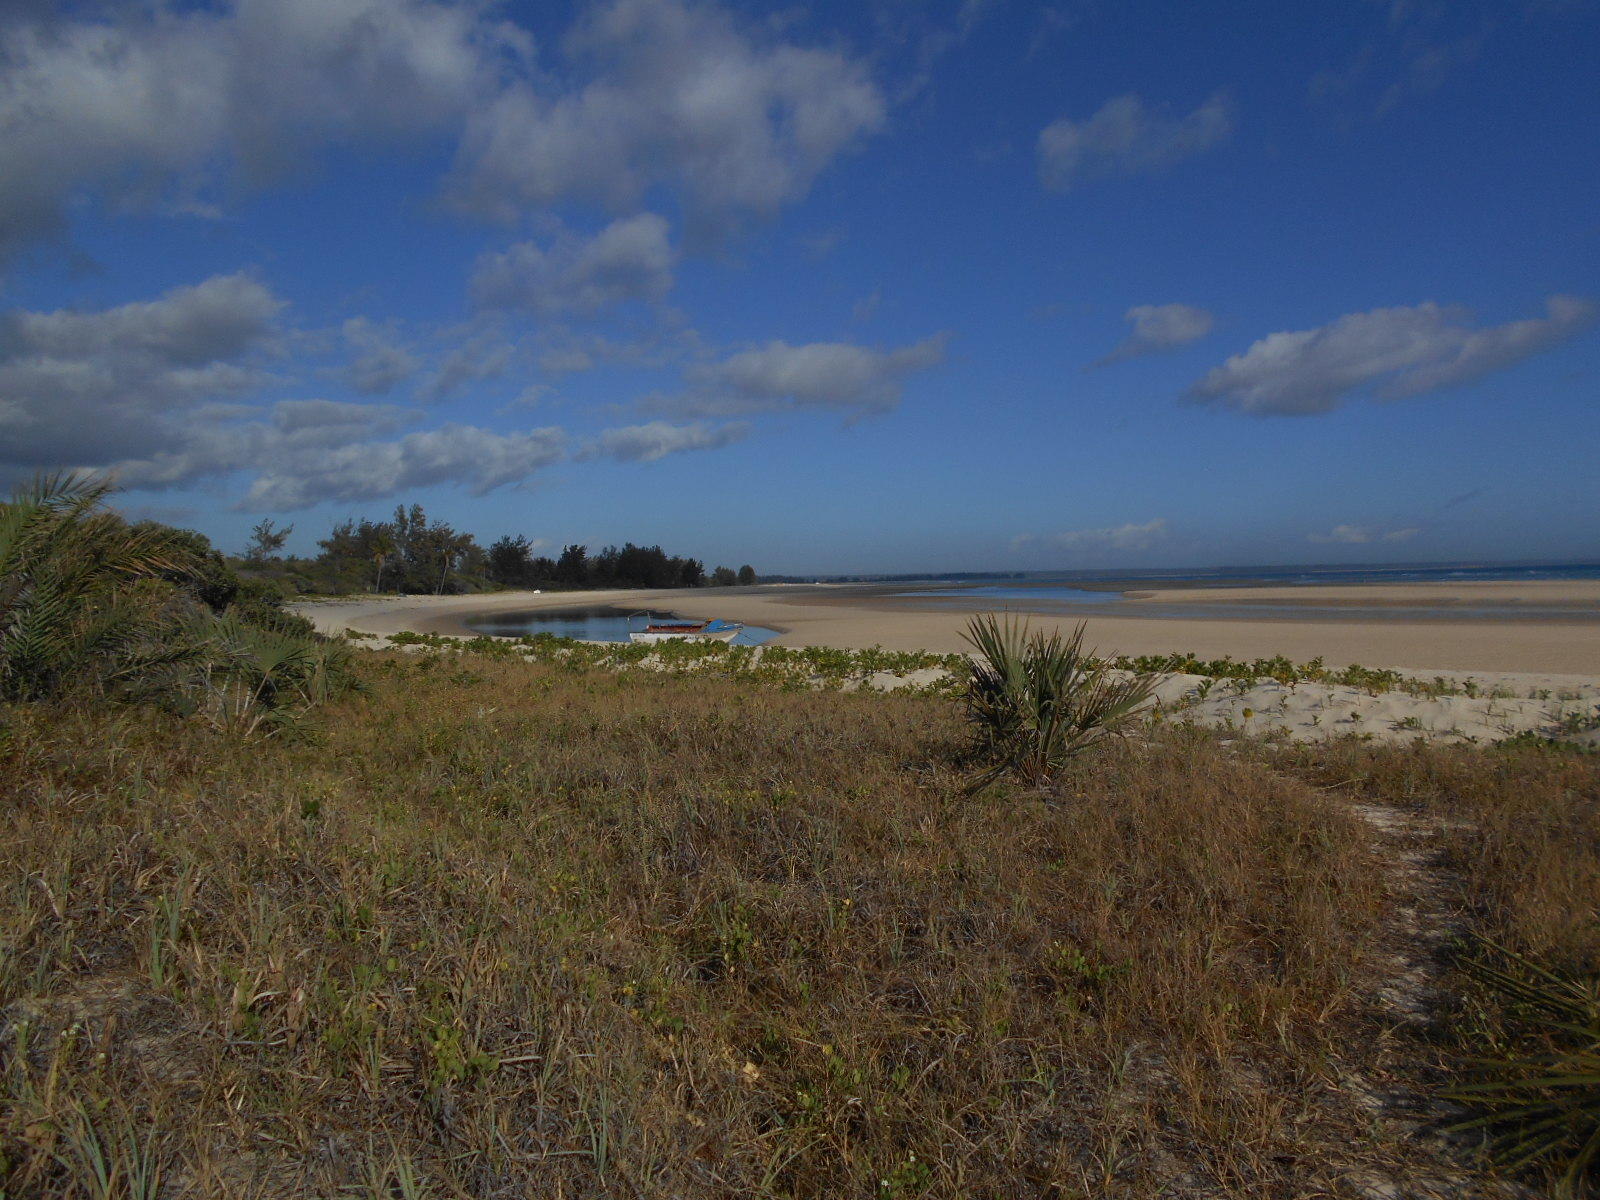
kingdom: Plantae
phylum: Tracheophyta
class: Liliopsida
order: Arecales
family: Arecaceae
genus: Hyphaene
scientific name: Hyphaene coriacea
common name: Ilala palm
